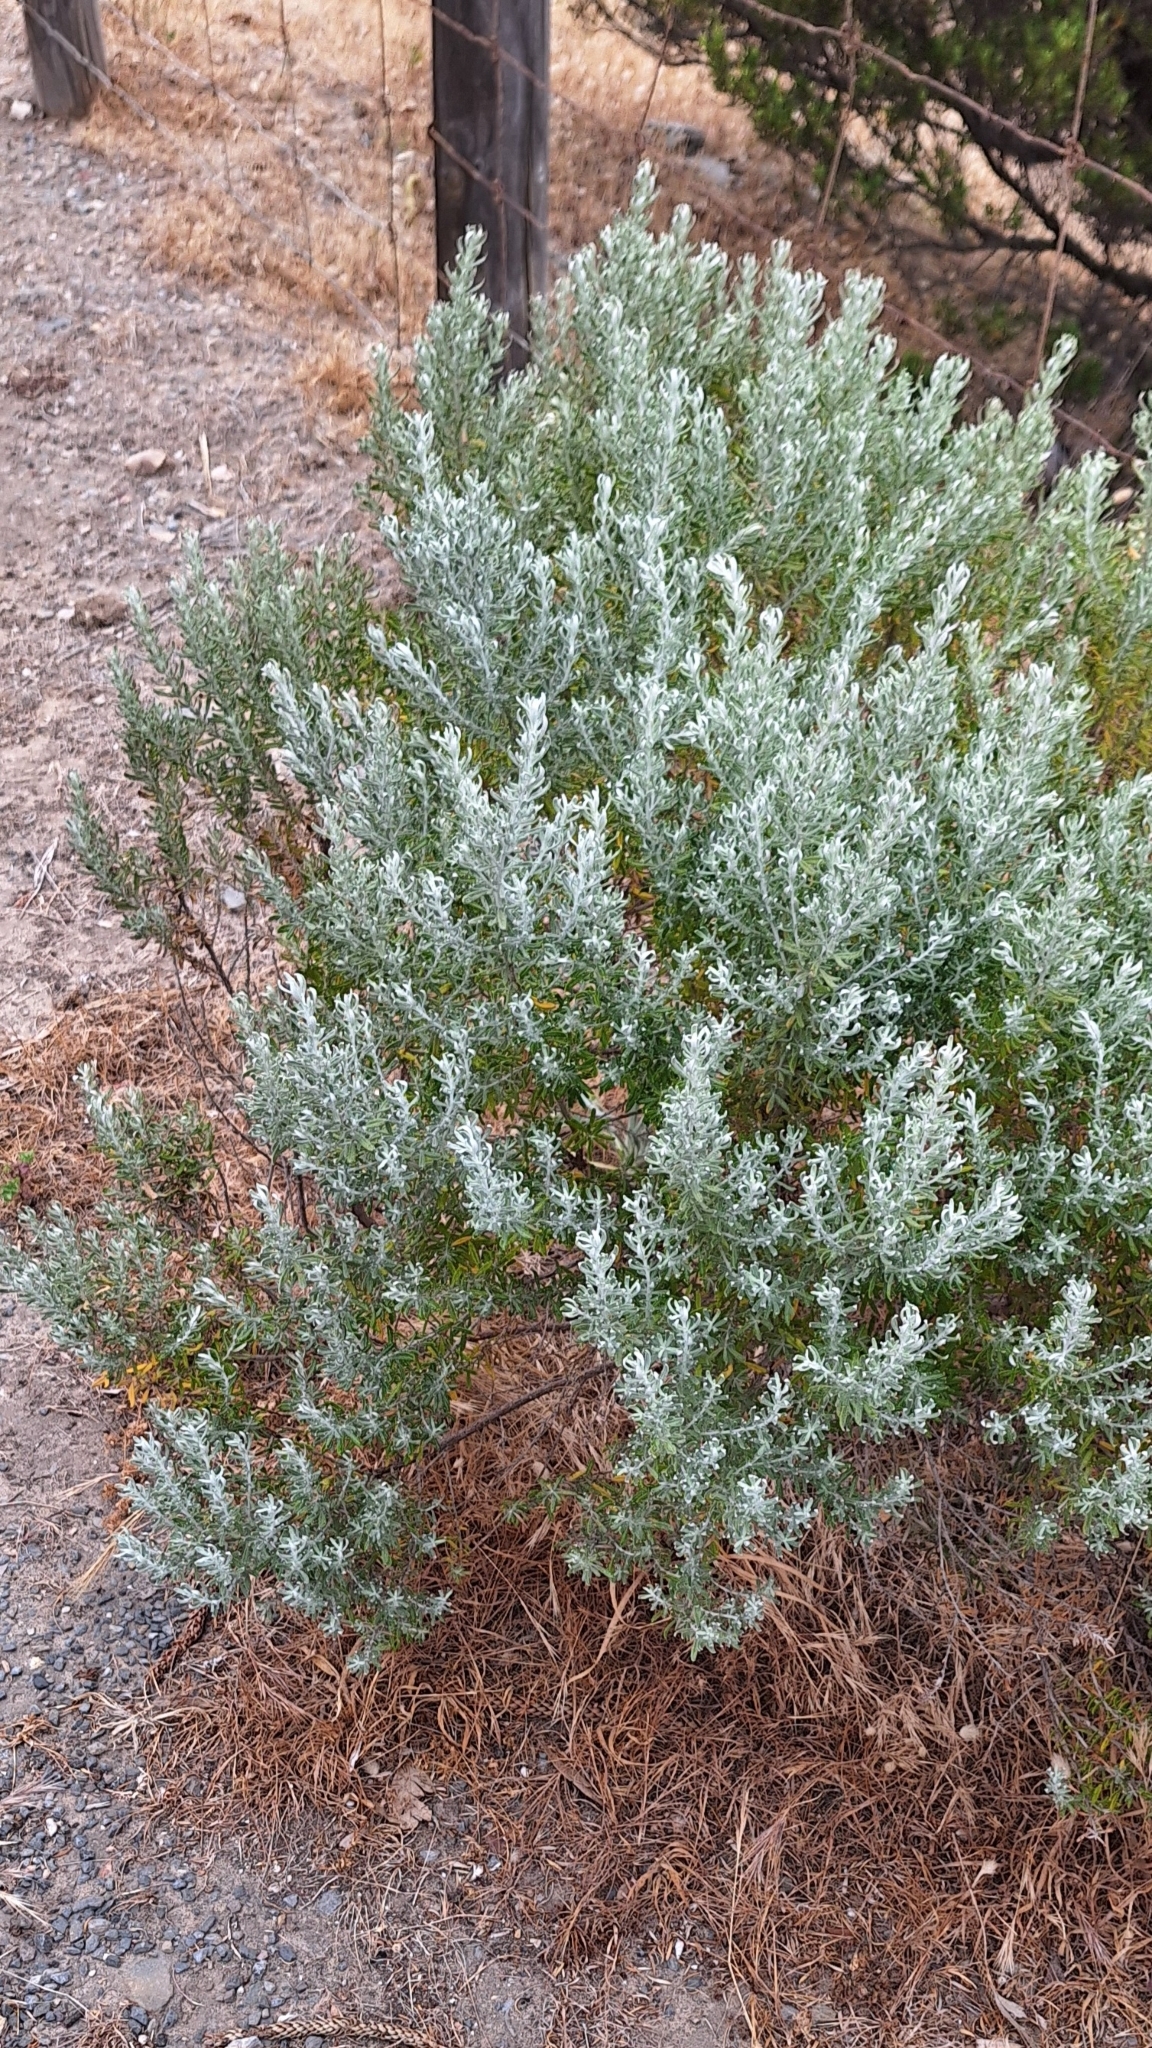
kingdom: Plantae
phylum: Tracheophyta
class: Magnoliopsida
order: Asterales
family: Asteraceae
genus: Olearia
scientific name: Olearia axillaris
